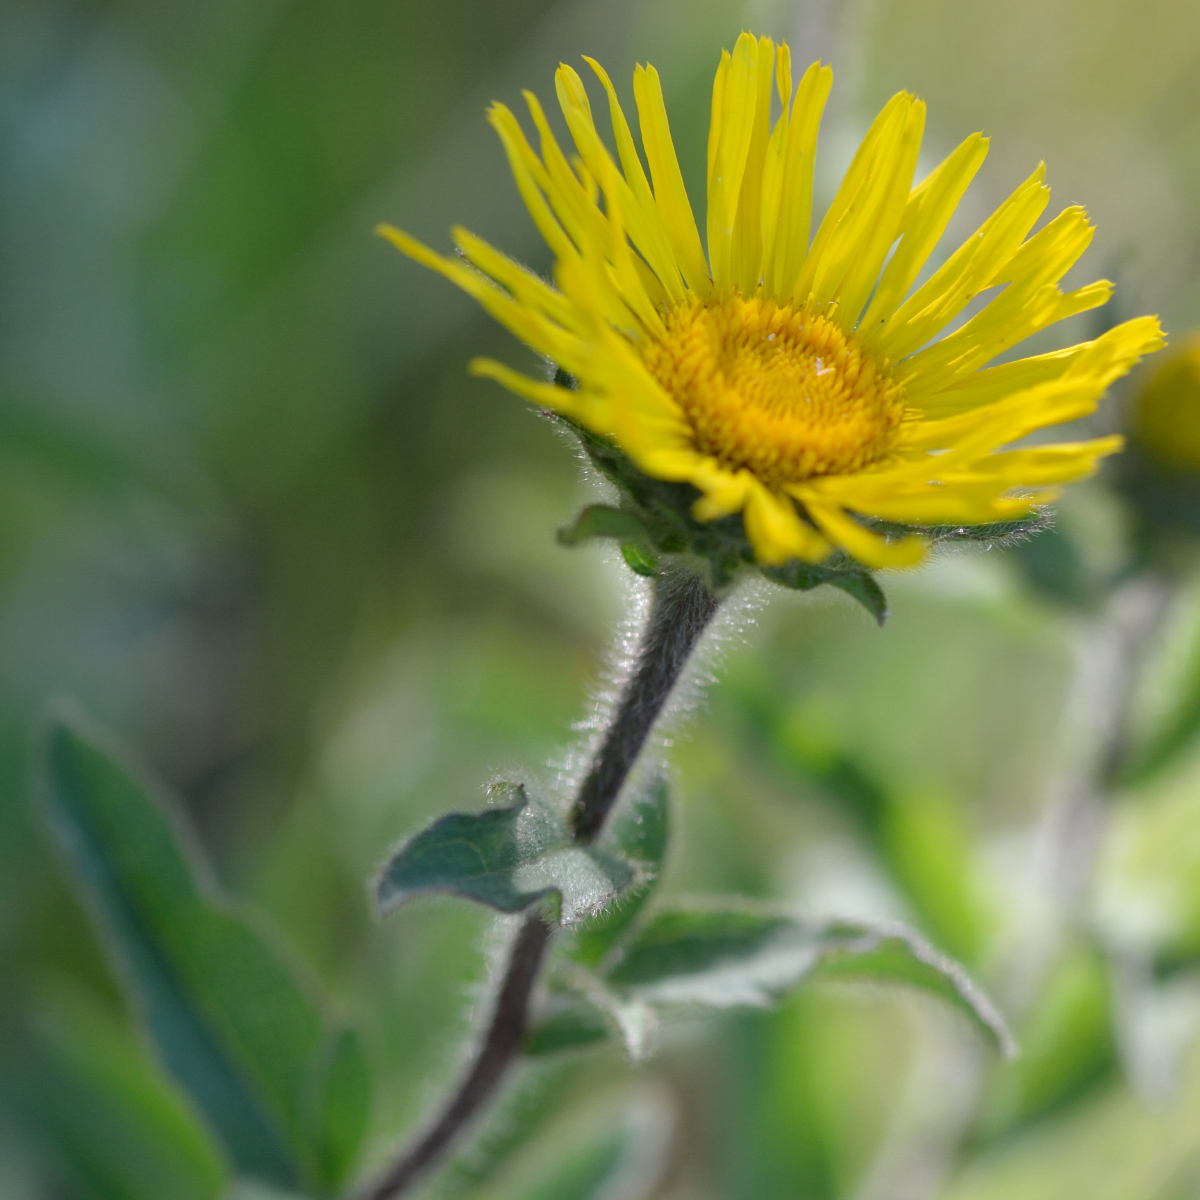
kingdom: Plantae
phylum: Tracheophyta
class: Magnoliopsida
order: Asterales
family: Asteraceae
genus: Pentanema
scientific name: Pentanema hirtum
